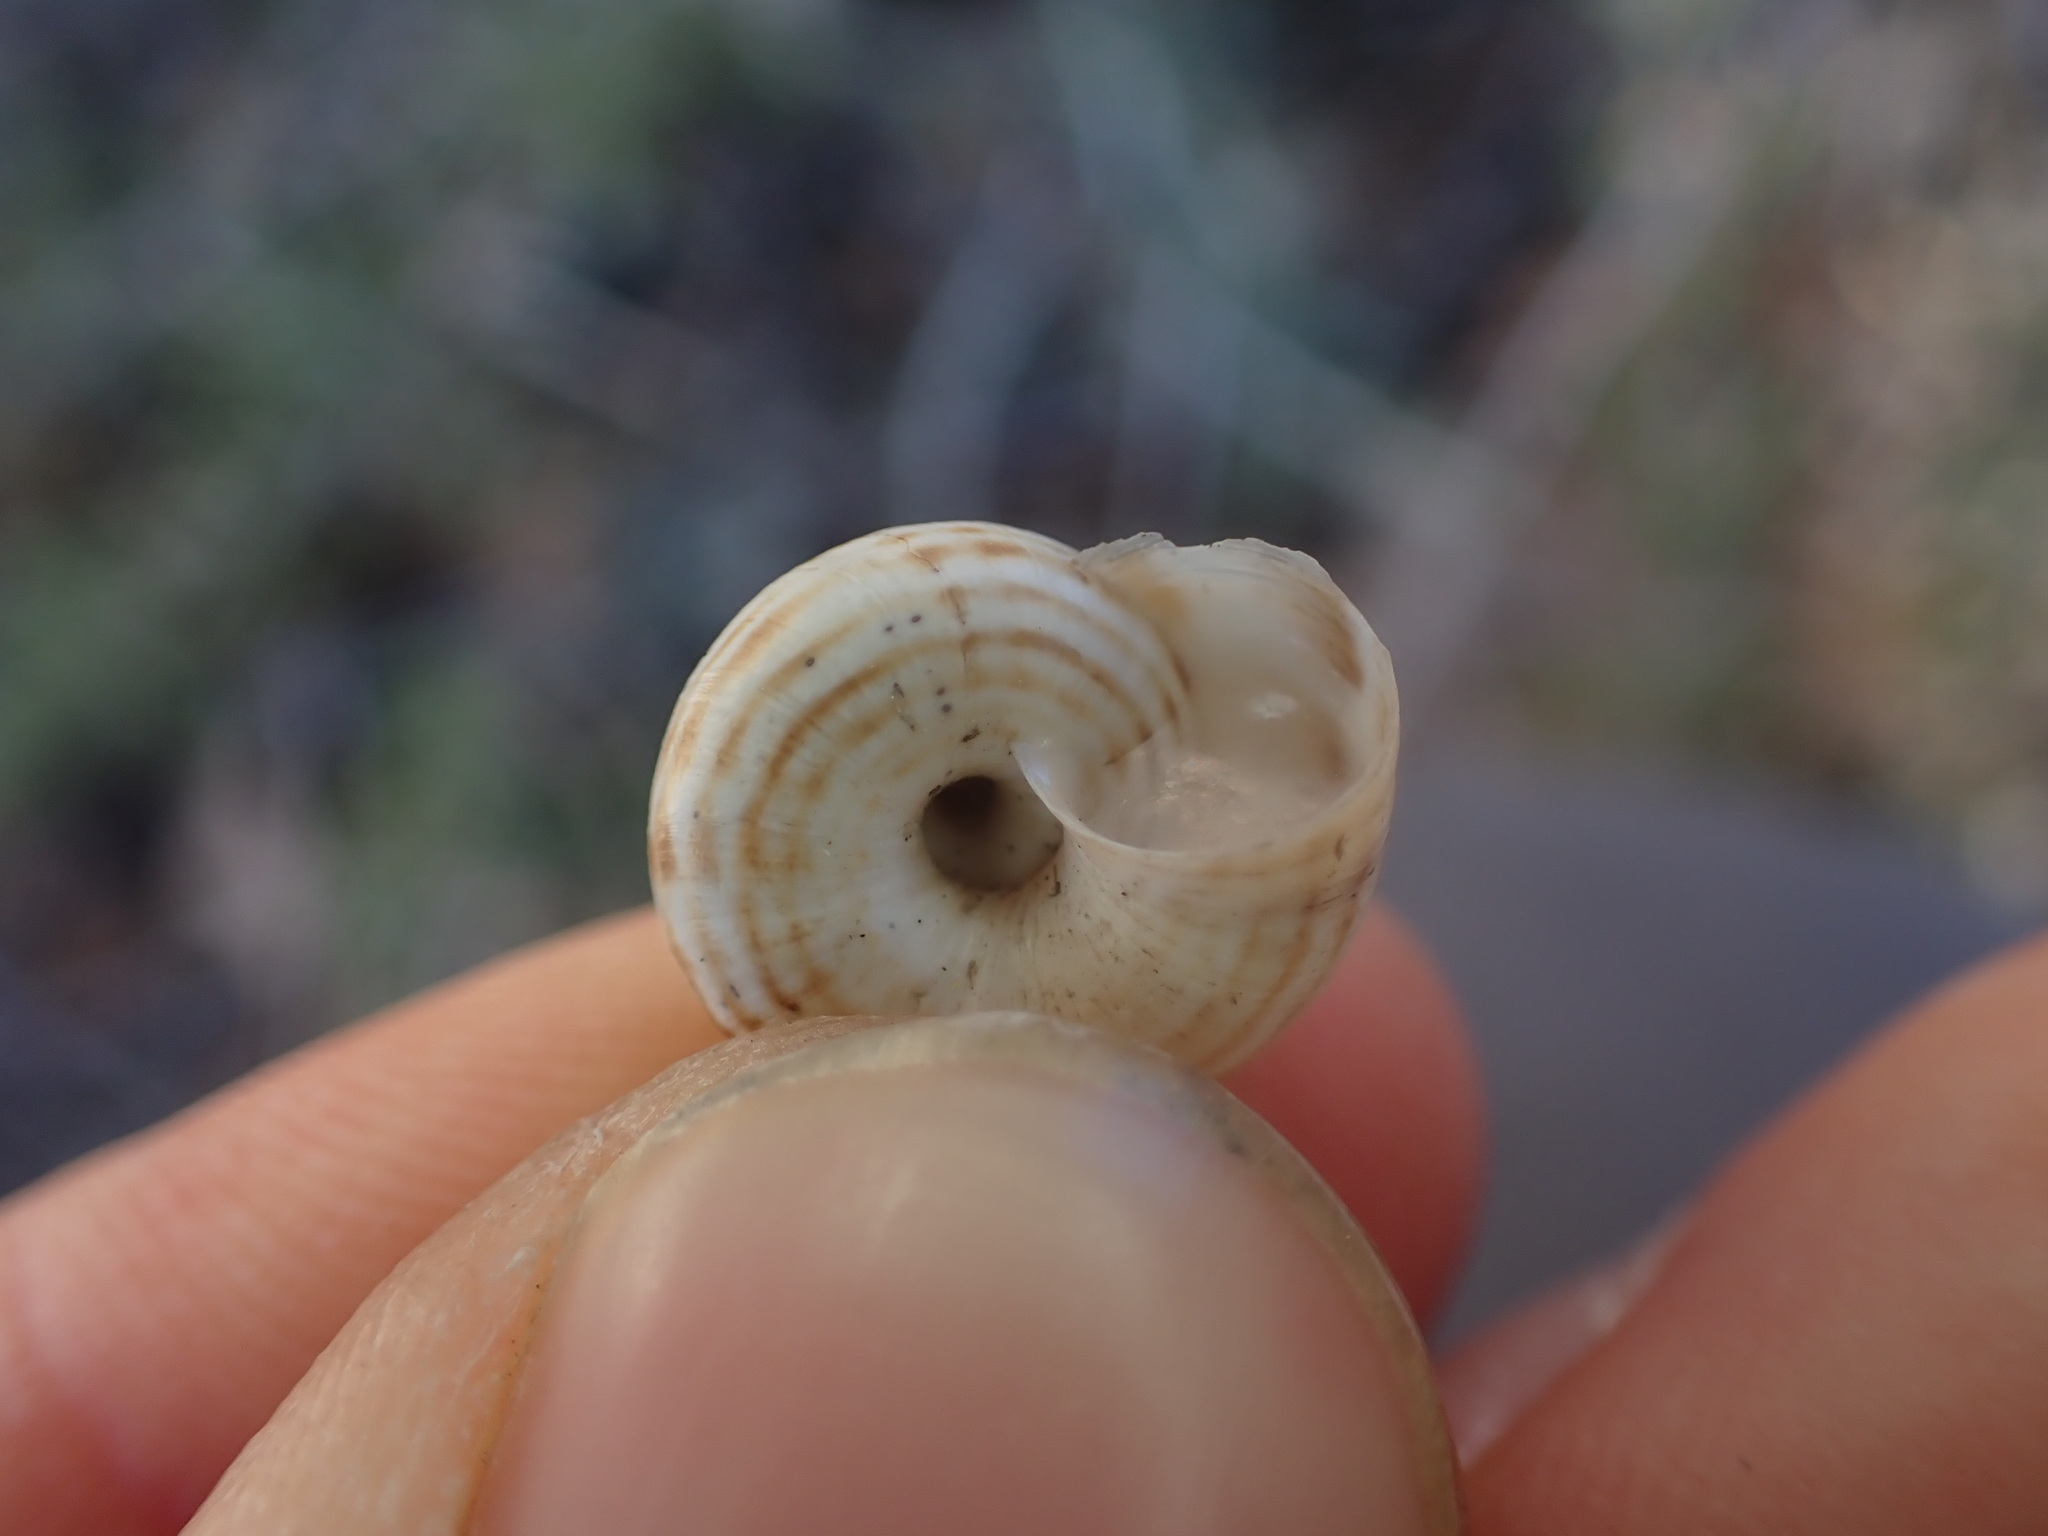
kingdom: Animalia
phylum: Mollusca
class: Gastropoda
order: Stylommatophora
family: Geomitridae
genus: Xeropicta
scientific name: Xeropicta derbentina
